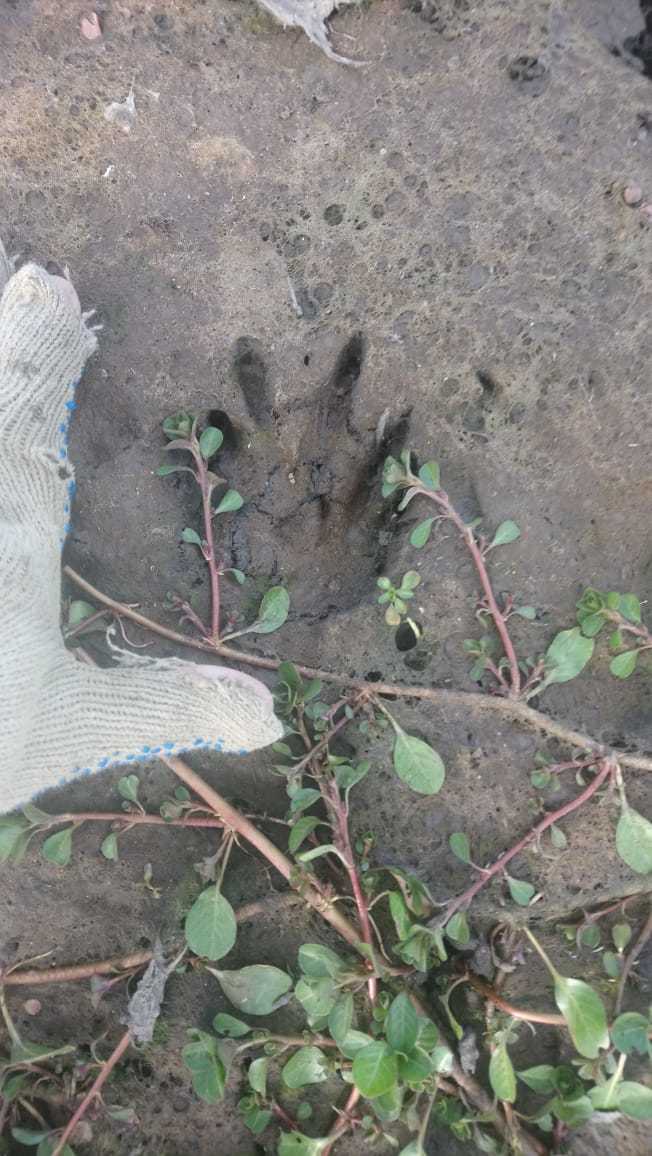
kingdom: Animalia
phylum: Chordata
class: Mammalia
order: Rodentia
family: Myocastoridae
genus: Myocastor
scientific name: Myocastor coypus
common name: Coypu
